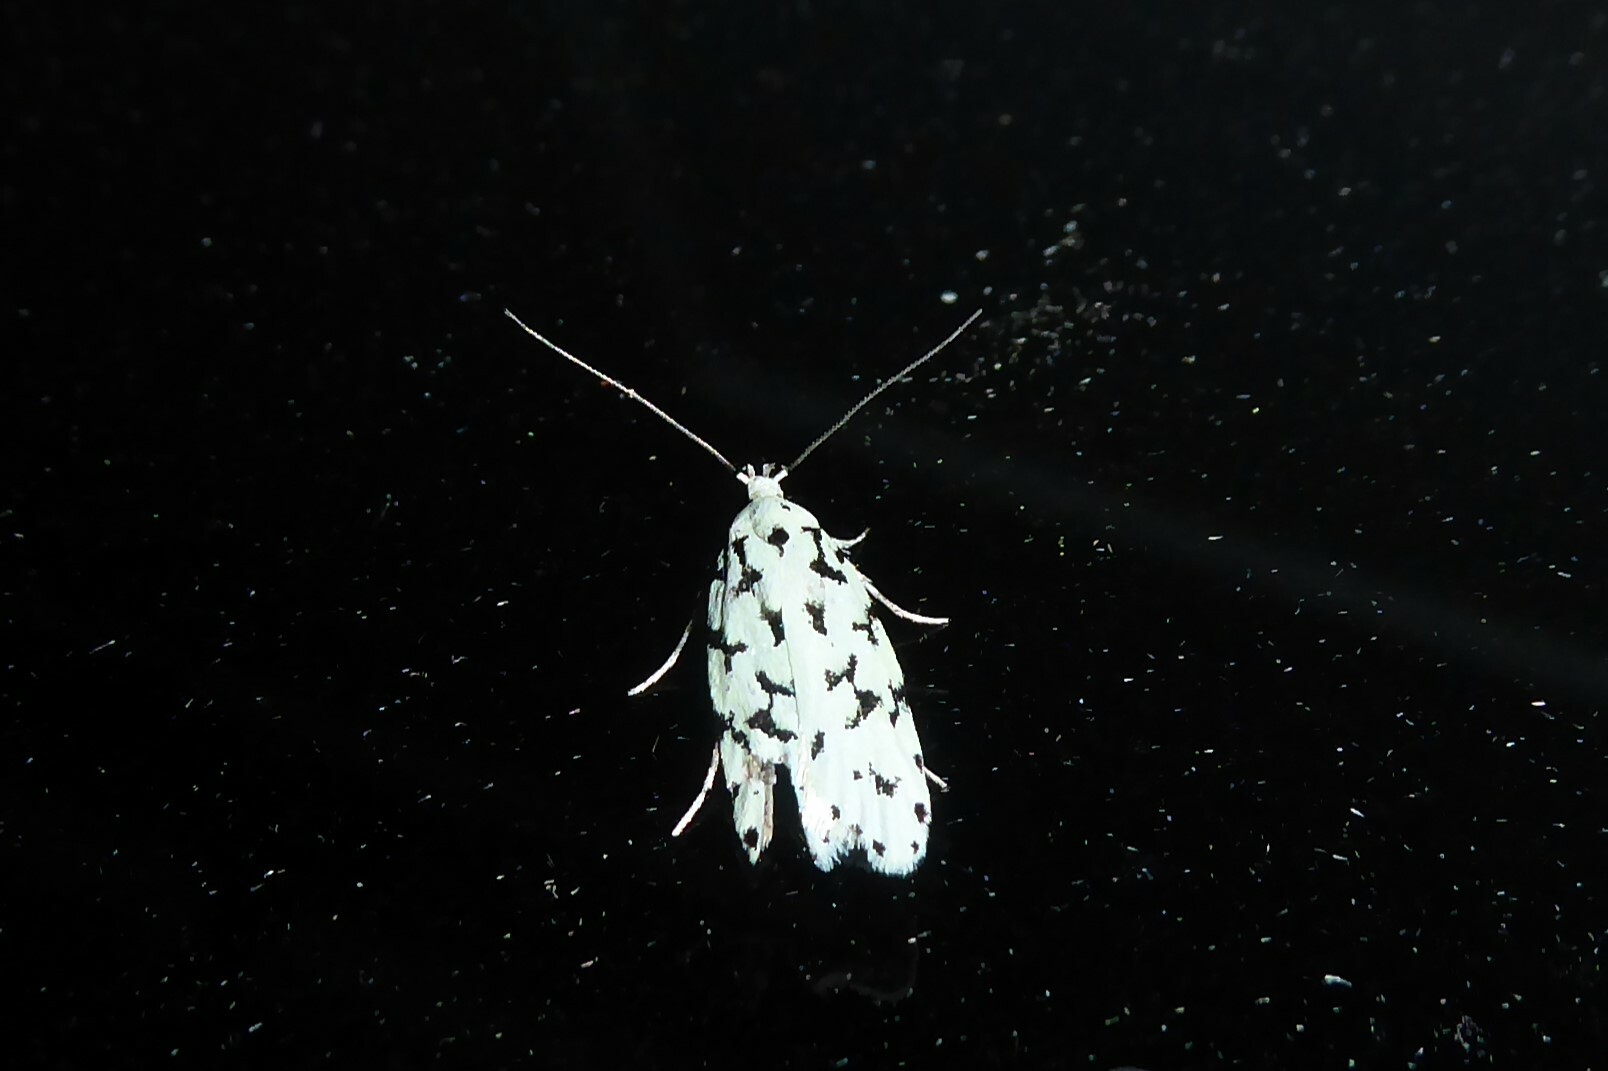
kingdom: Animalia
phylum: Arthropoda
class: Insecta
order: Lepidoptera
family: Oecophoridae
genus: Izatha
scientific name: Izatha huttoni
